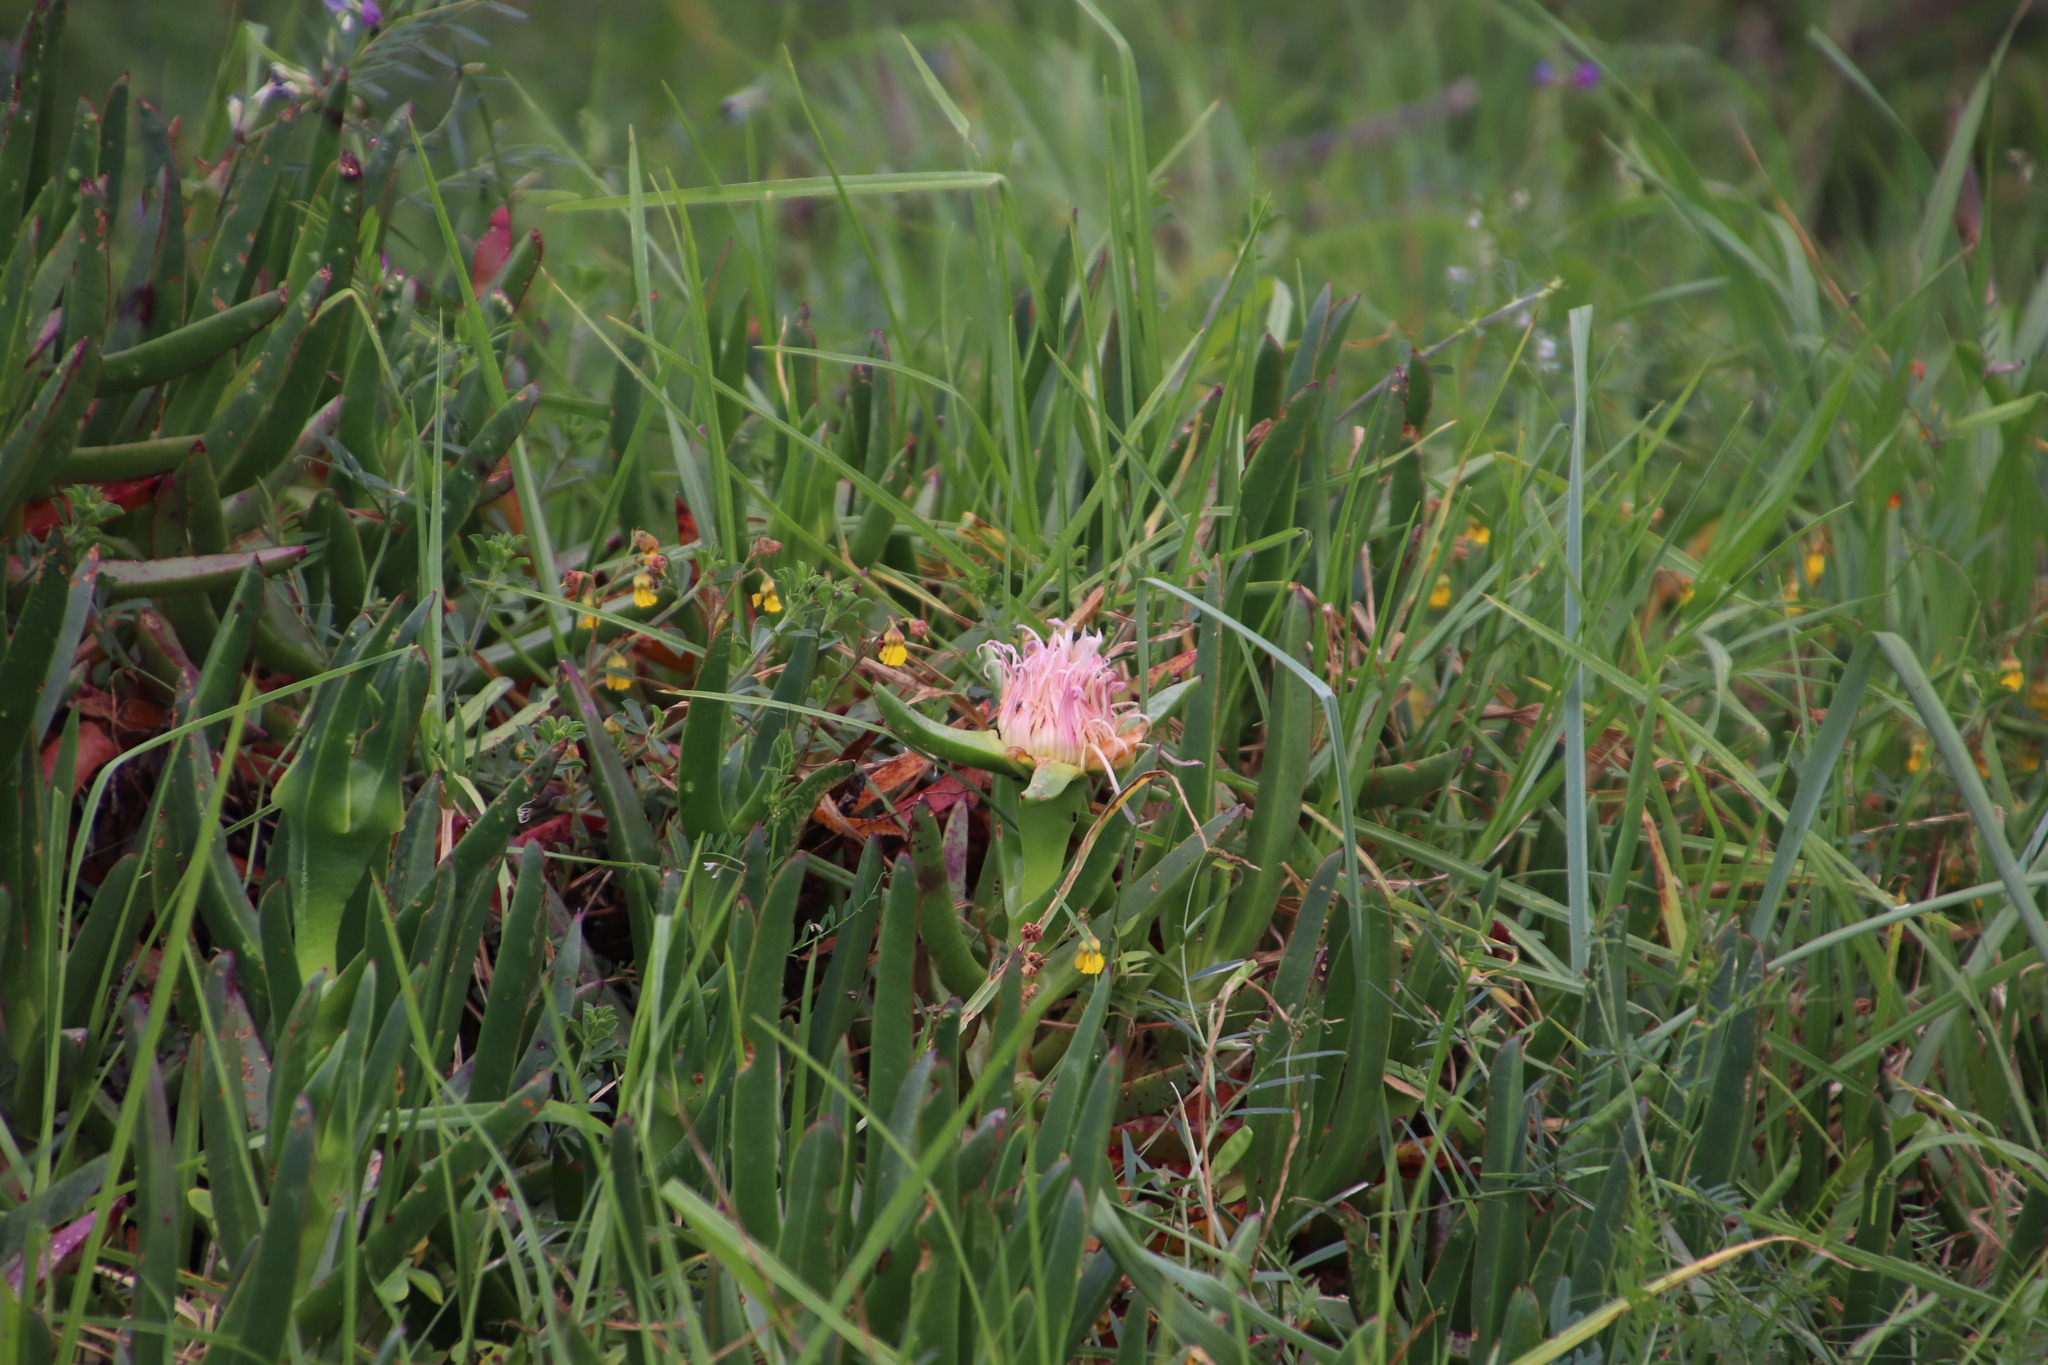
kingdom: Plantae
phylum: Tracheophyta
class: Magnoliopsida
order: Caryophyllales
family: Aizoaceae
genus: Carpobrotus
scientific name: Carpobrotus edulis
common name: Hottentot-fig
